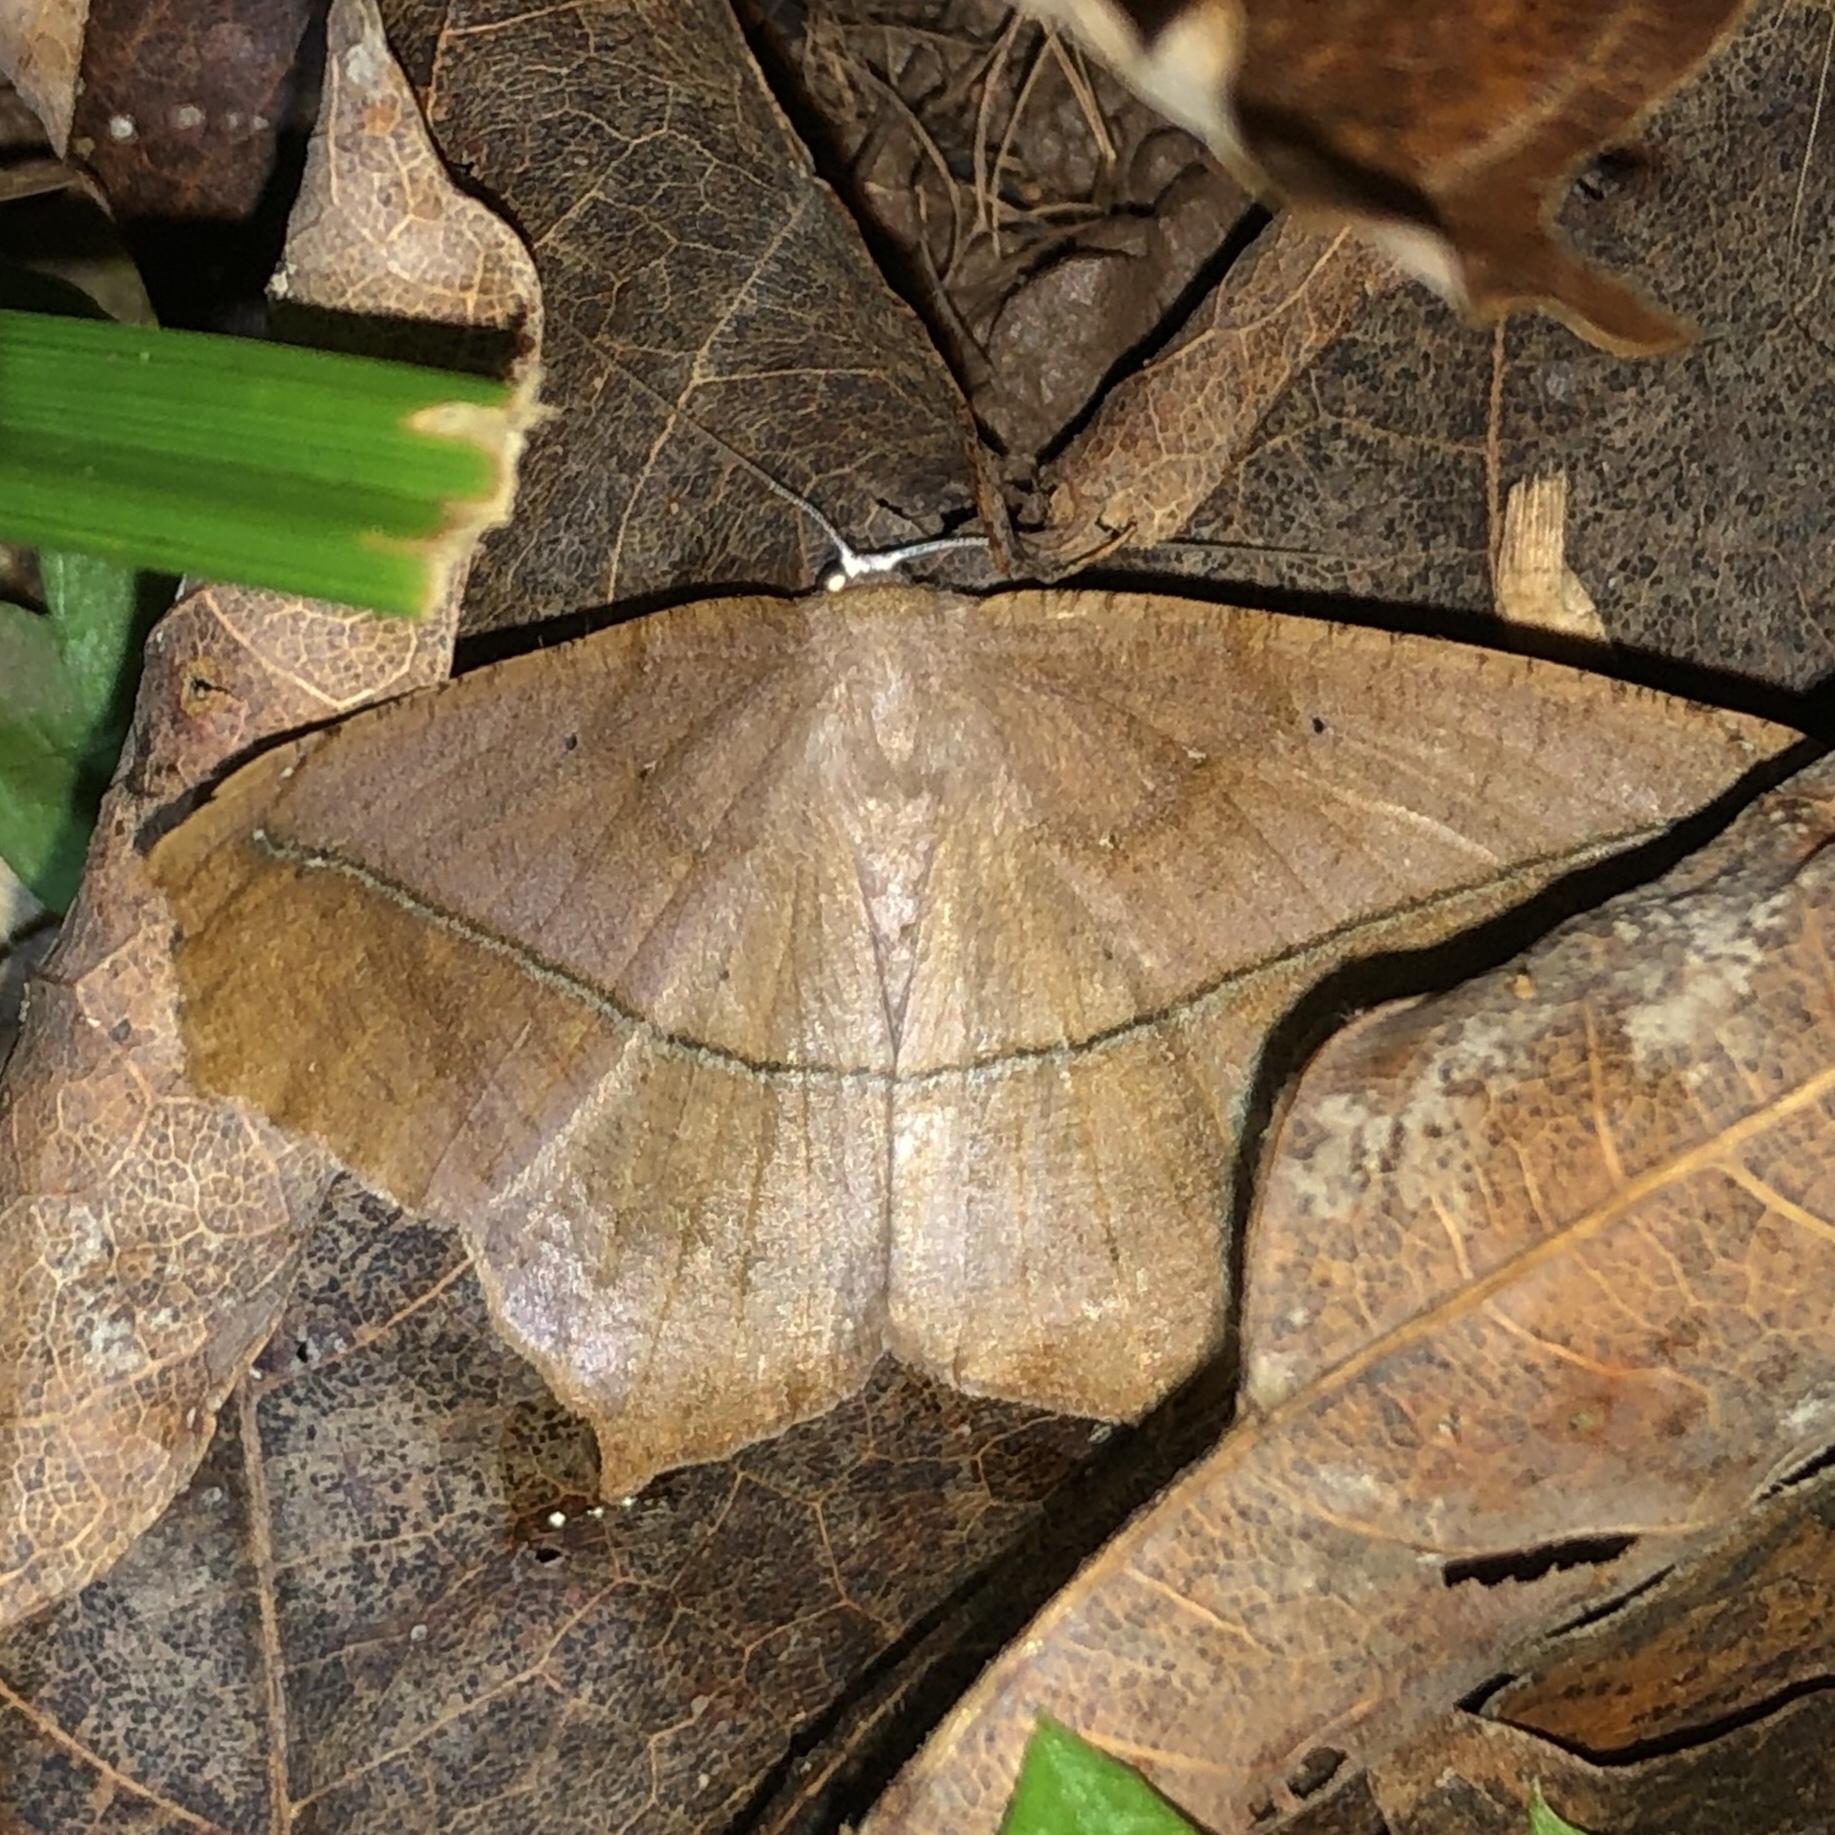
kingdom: Animalia
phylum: Arthropoda
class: Insecta
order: Lepidoptera
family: Geometridae
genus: Prochoerodes
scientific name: Prochoerodes lineola
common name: Large maple spanworm
